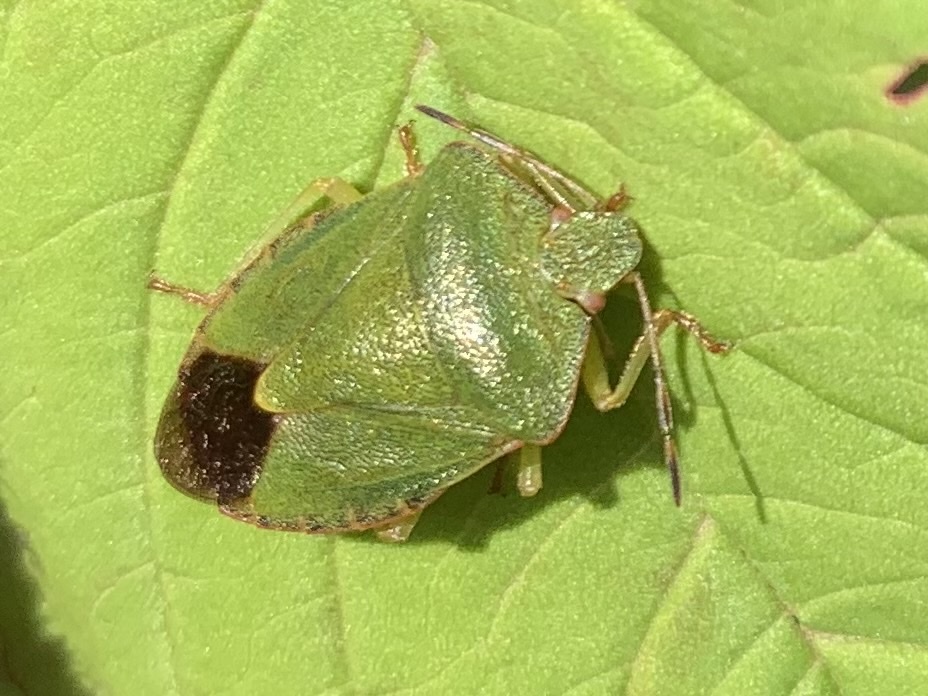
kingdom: Animalia
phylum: Arthropoda
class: Insecta
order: Hemiptera
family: Pentatomidae
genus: Palomena
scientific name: Palomena prasina
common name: Green shieldbug
